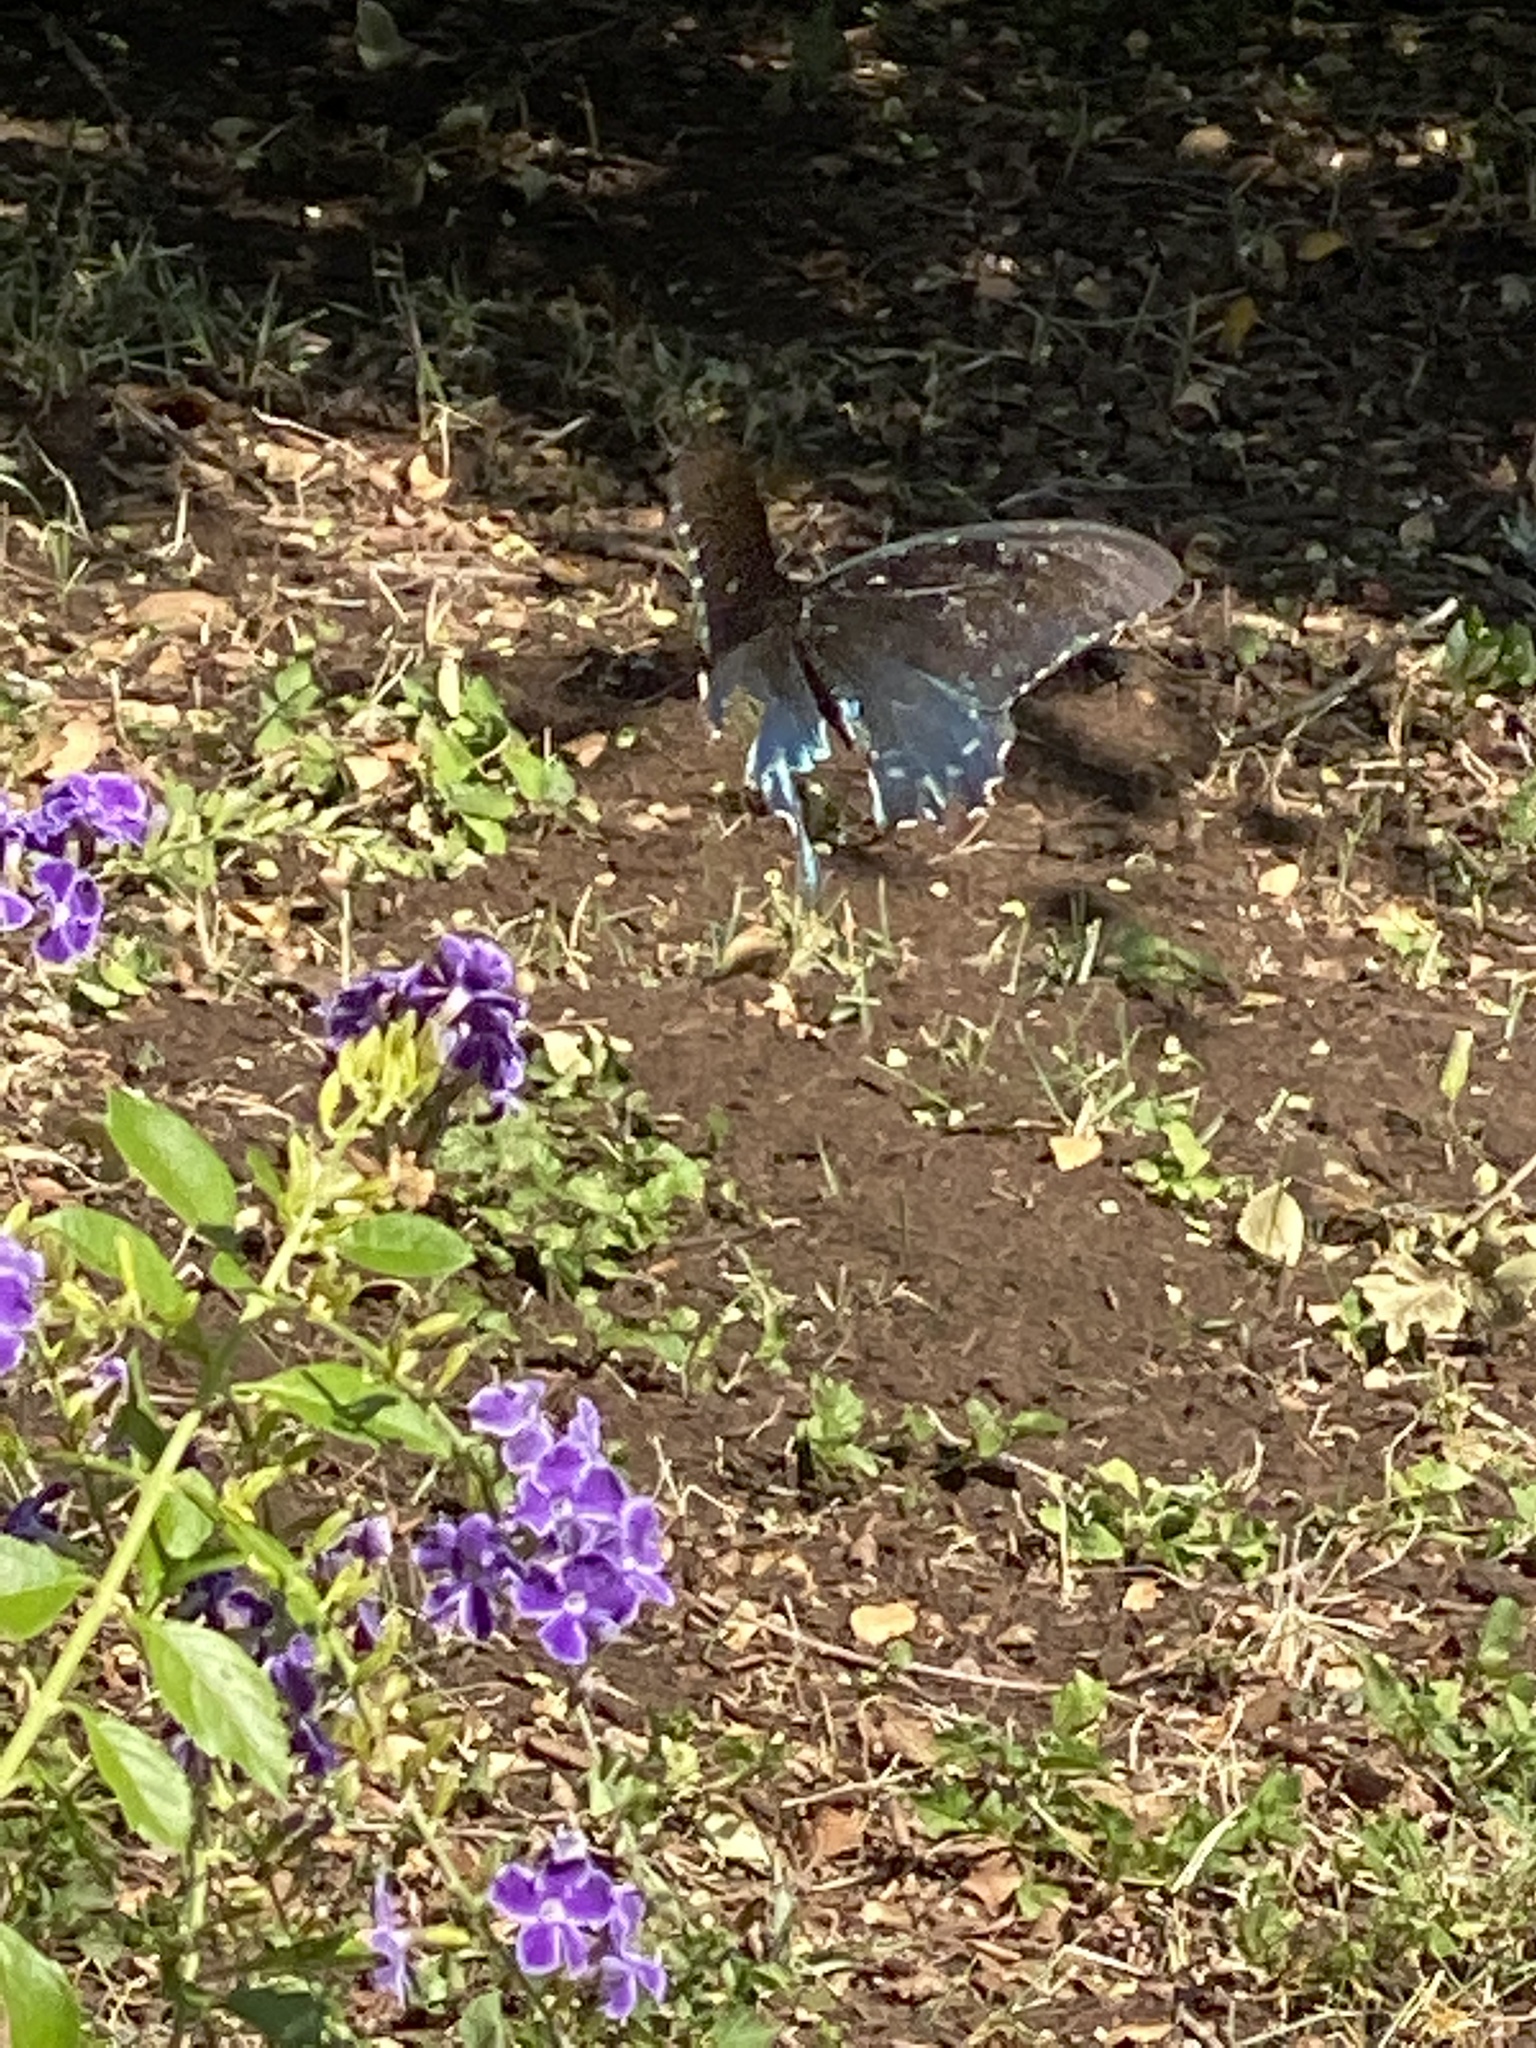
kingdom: Animalia
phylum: Arthropoda
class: Insecta
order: Lepidoptera
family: Papilionidae
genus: Battus
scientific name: Battus philenor
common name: Pipevine swallowtail
